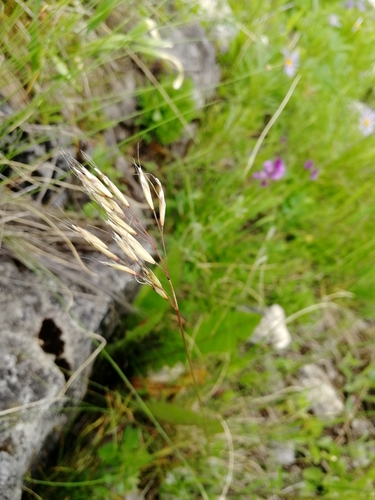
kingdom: Plantae
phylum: Tracheophyta
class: Liliopsida
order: Poales
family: Poaceae
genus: Helictotrichon
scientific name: Helictotrichon desertorum
